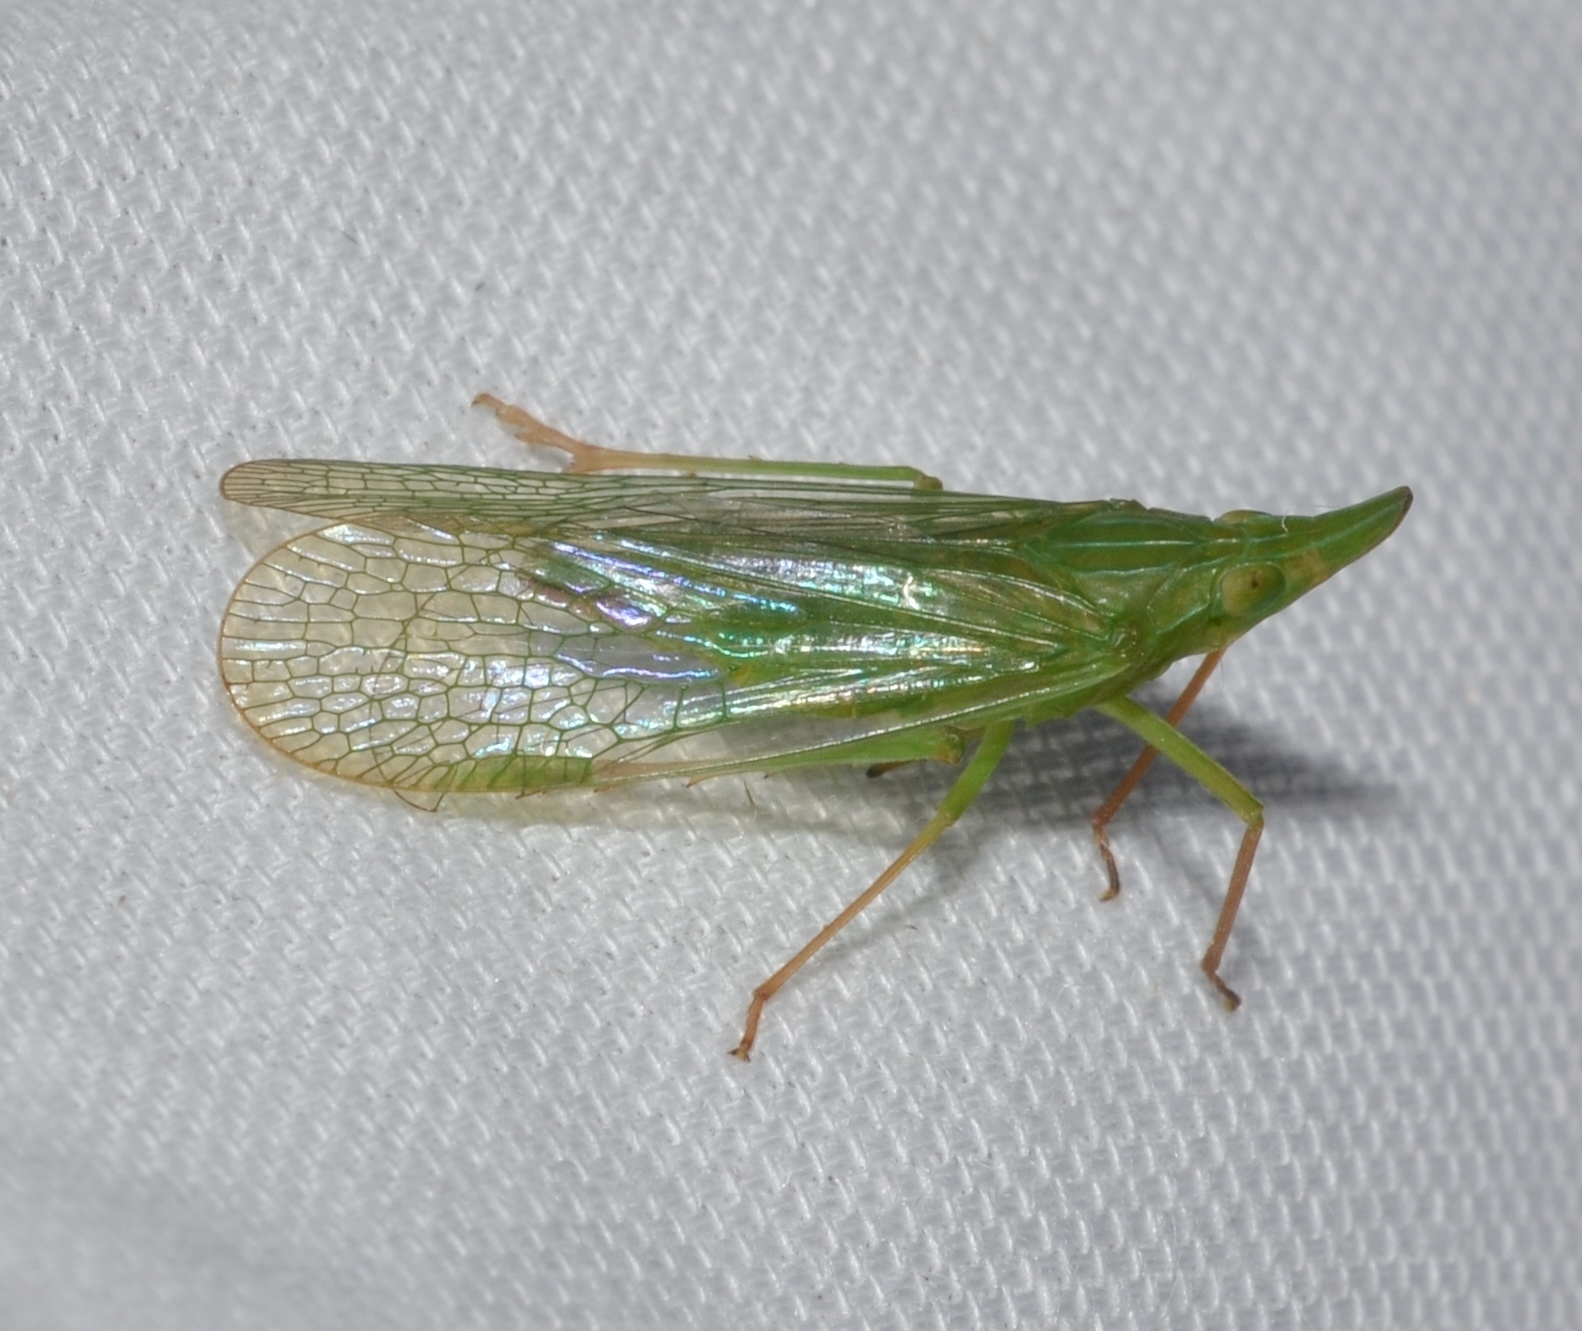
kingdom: Animalia
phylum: Arthropoda
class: Insecta
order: Hemiptera
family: Dictyopharidae
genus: Rhynchomitra
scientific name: Rhynchomitra microrhina
